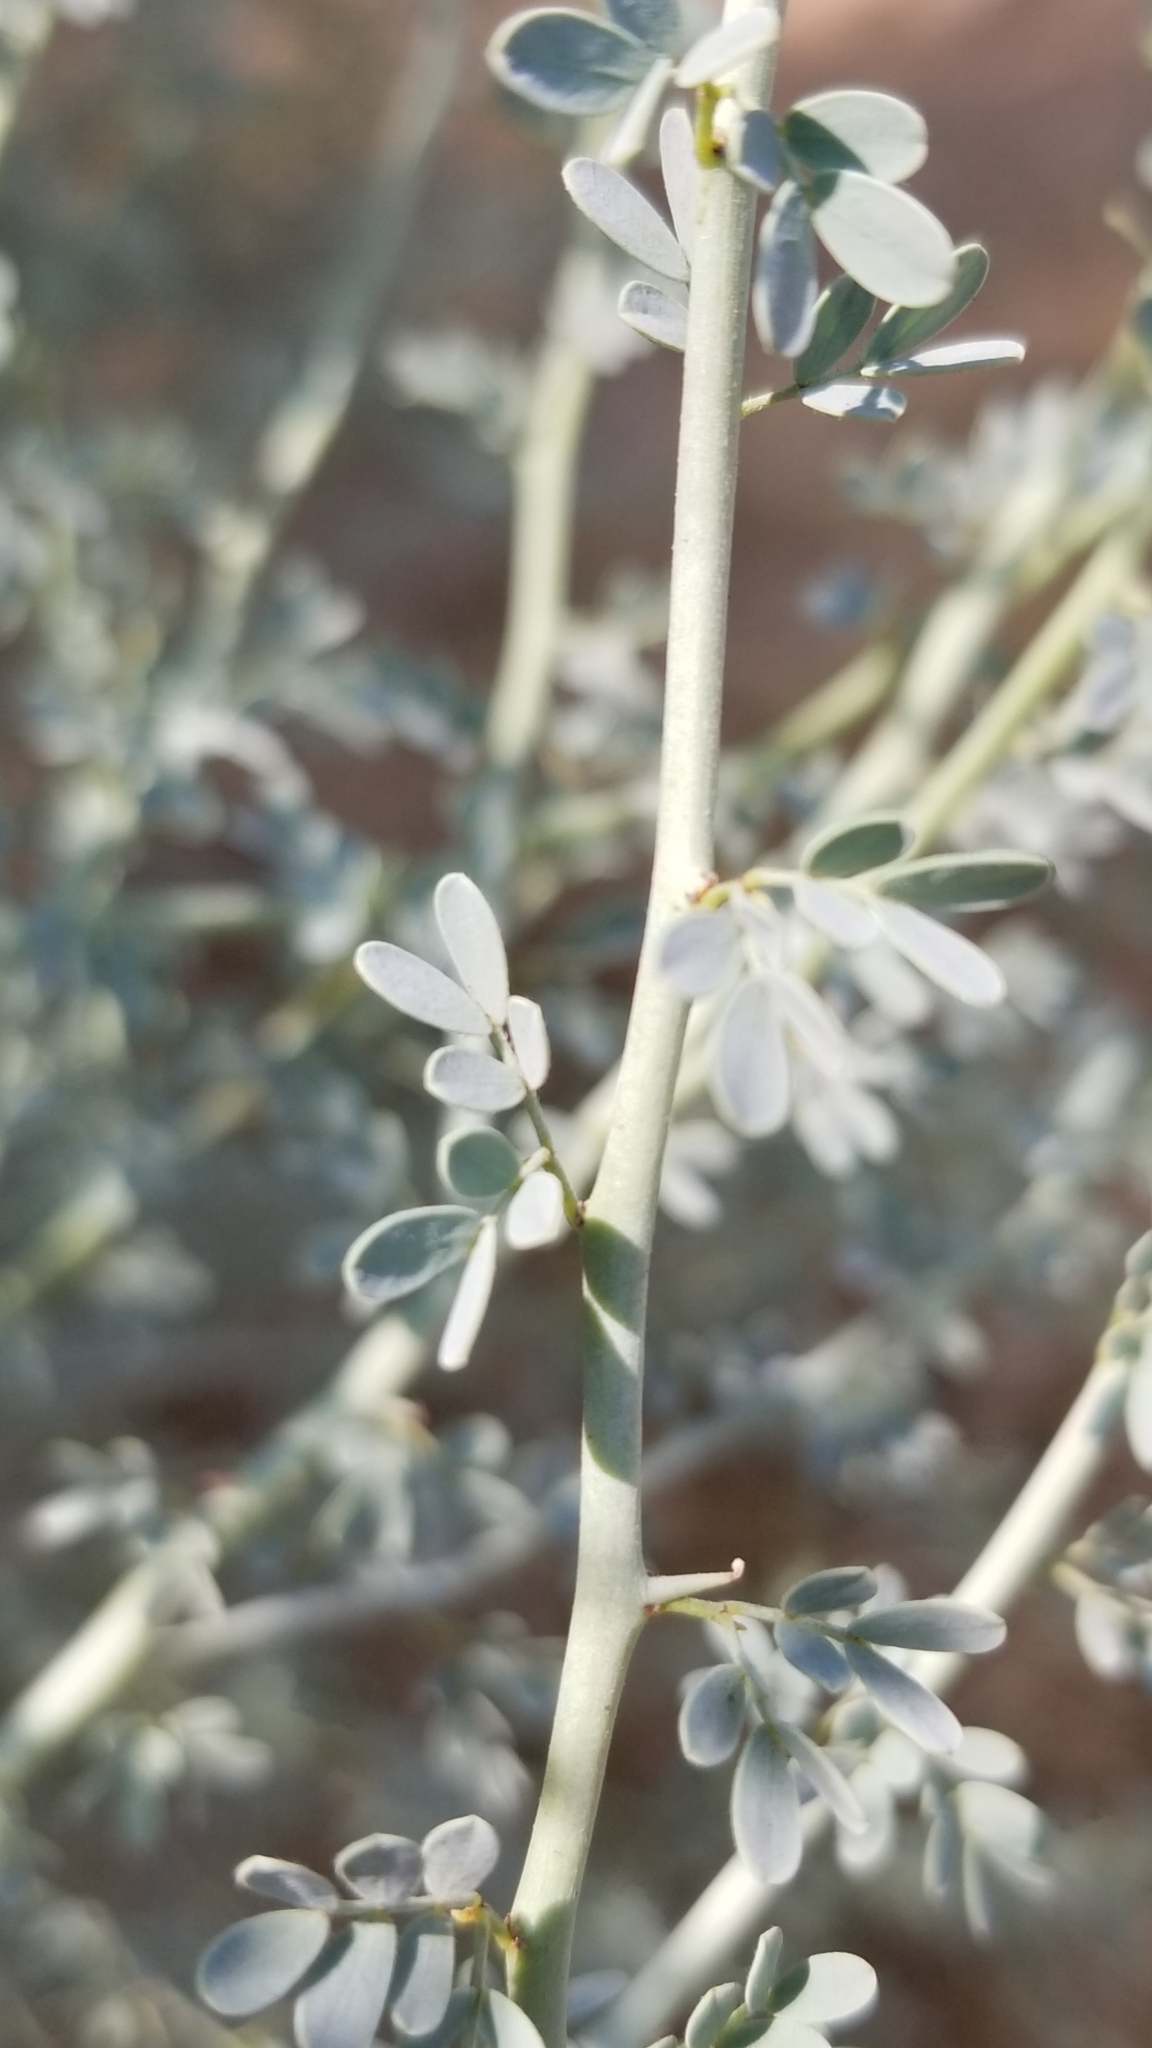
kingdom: Plantae
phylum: Tracheophyta
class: Magnoliopsida
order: Fabales
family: Fabaceae
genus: Parkinsonia
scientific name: Parkinsonia florida
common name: Blue paloverde
